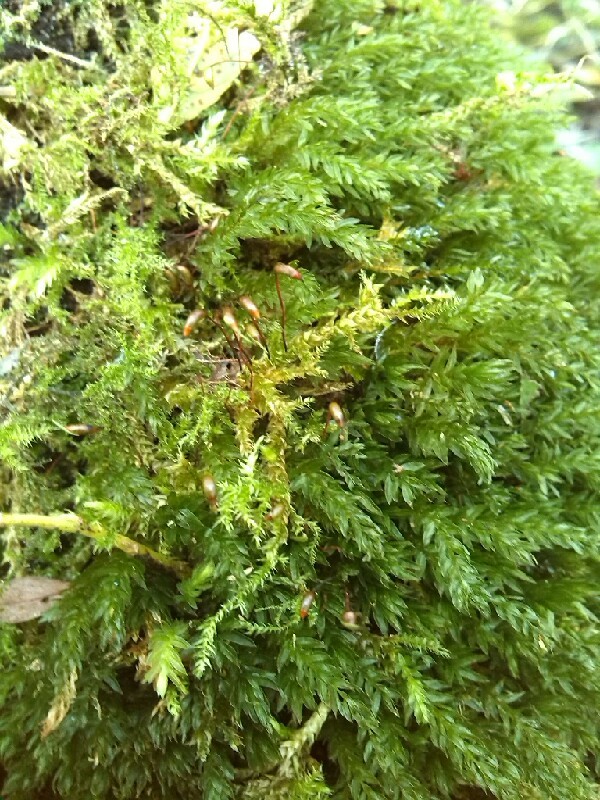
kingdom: Plantae
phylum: Bryophyta
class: Bryopsida
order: Bryales
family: Mniaceae
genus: Mnium
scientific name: Mnium hornum
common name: Swan's-neck leafy moss
